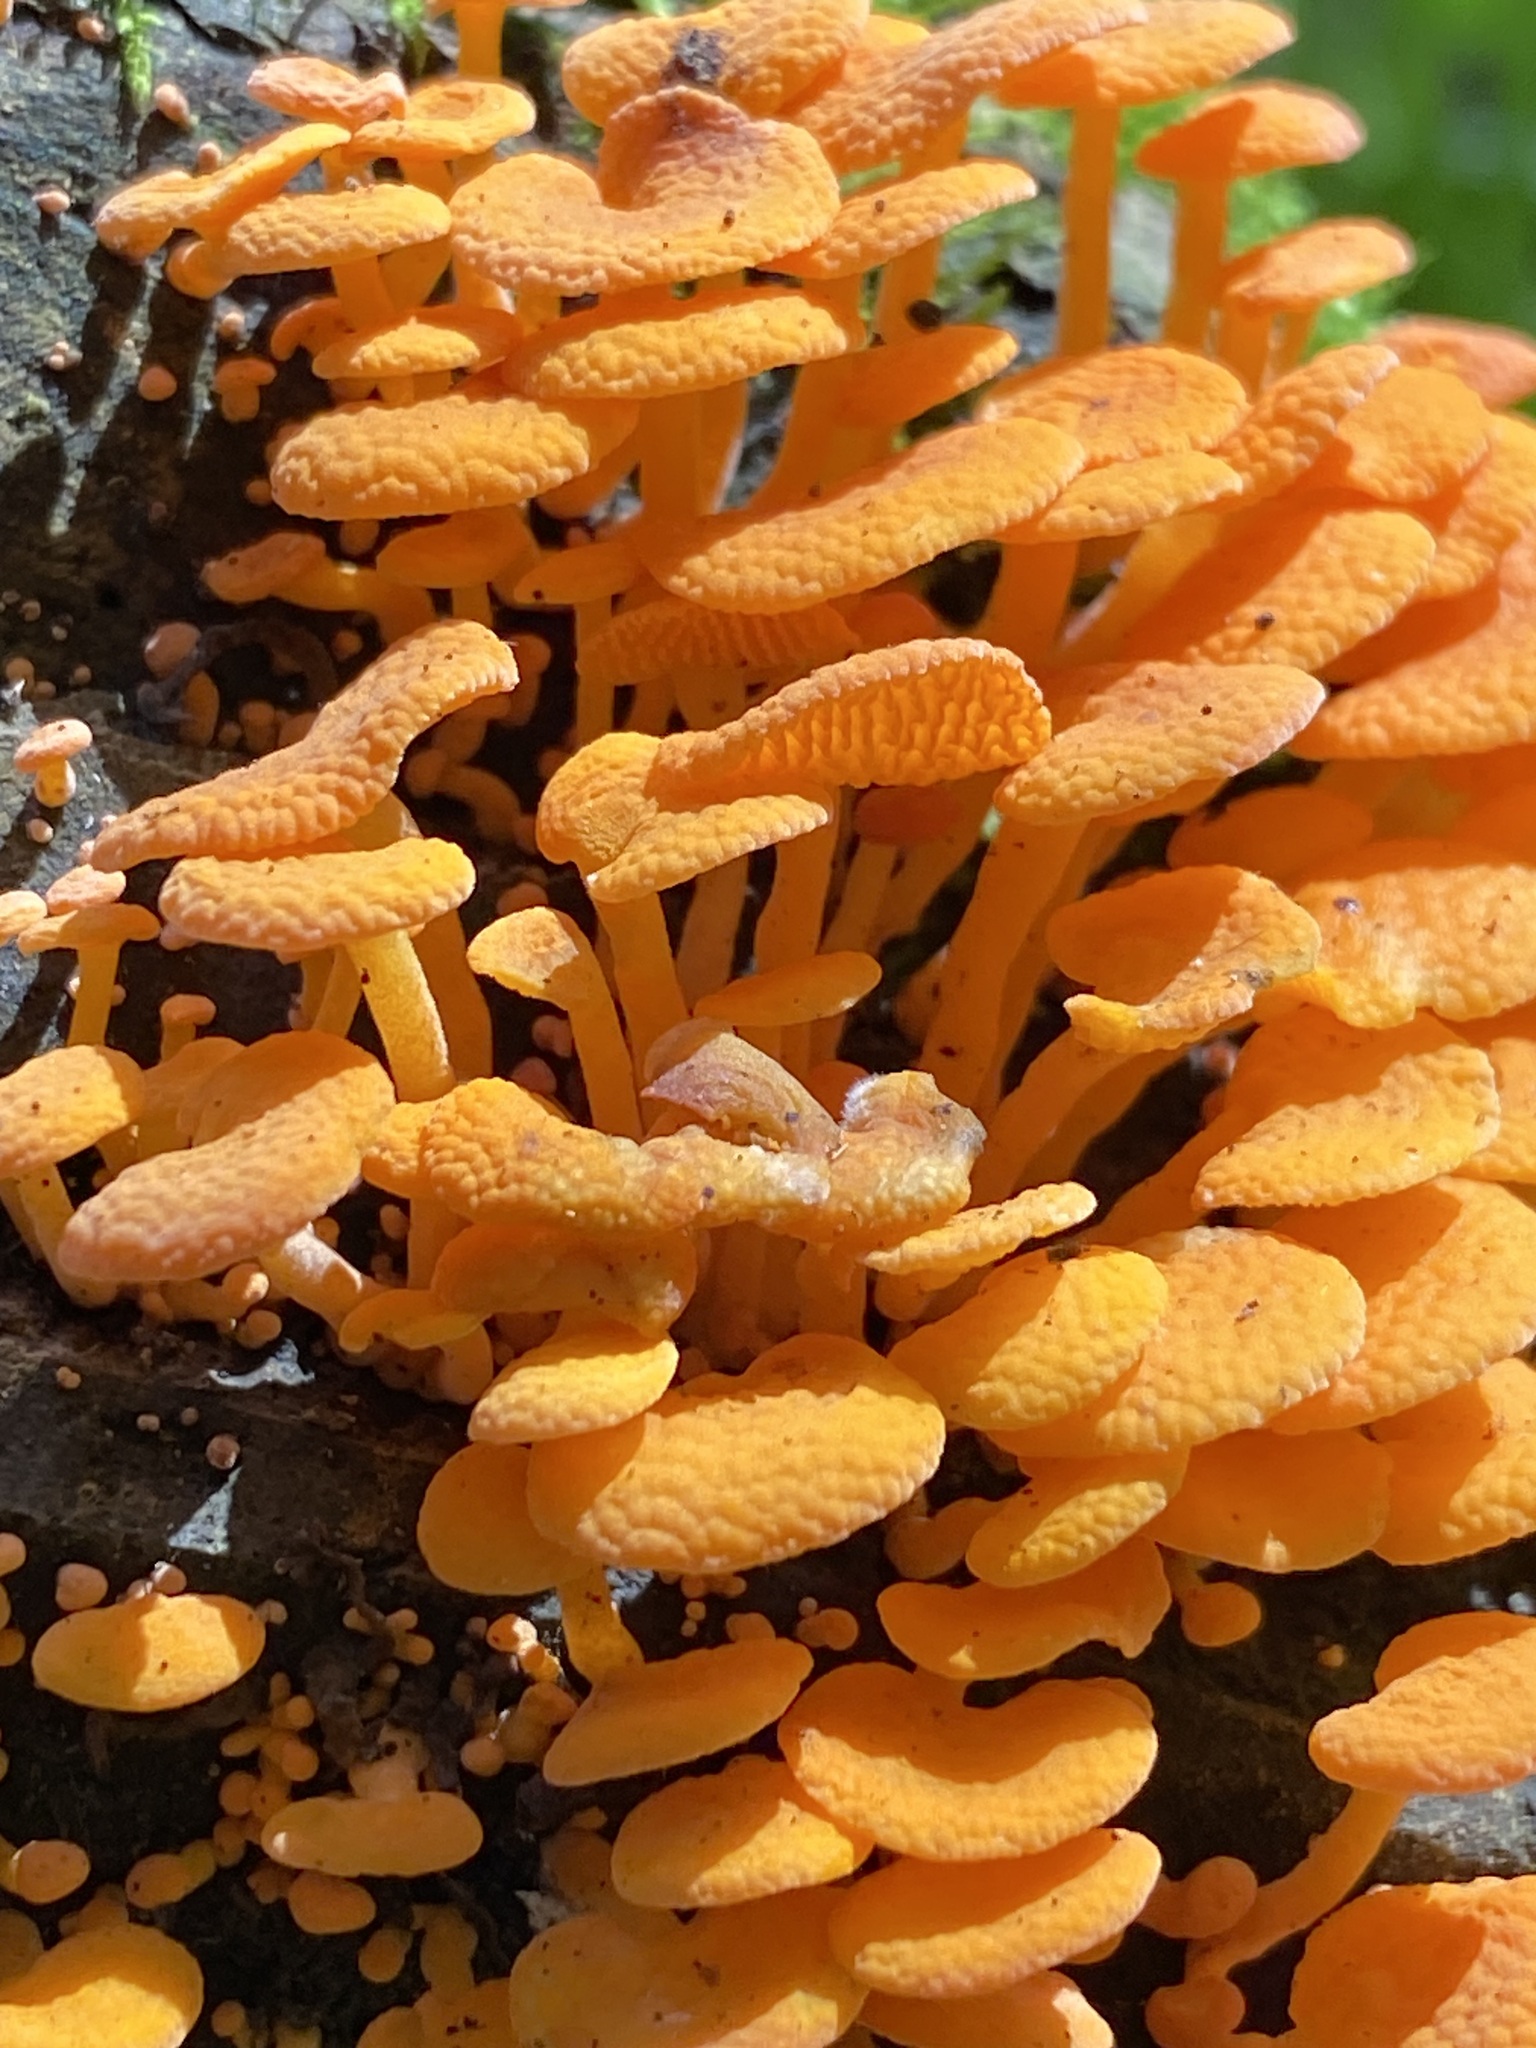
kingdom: Fungi
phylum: Basidiomycota
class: Agaricomycetes
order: Agaricales
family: Mycenaceae
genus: Favolaschia
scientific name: Favolaschia claudopus
